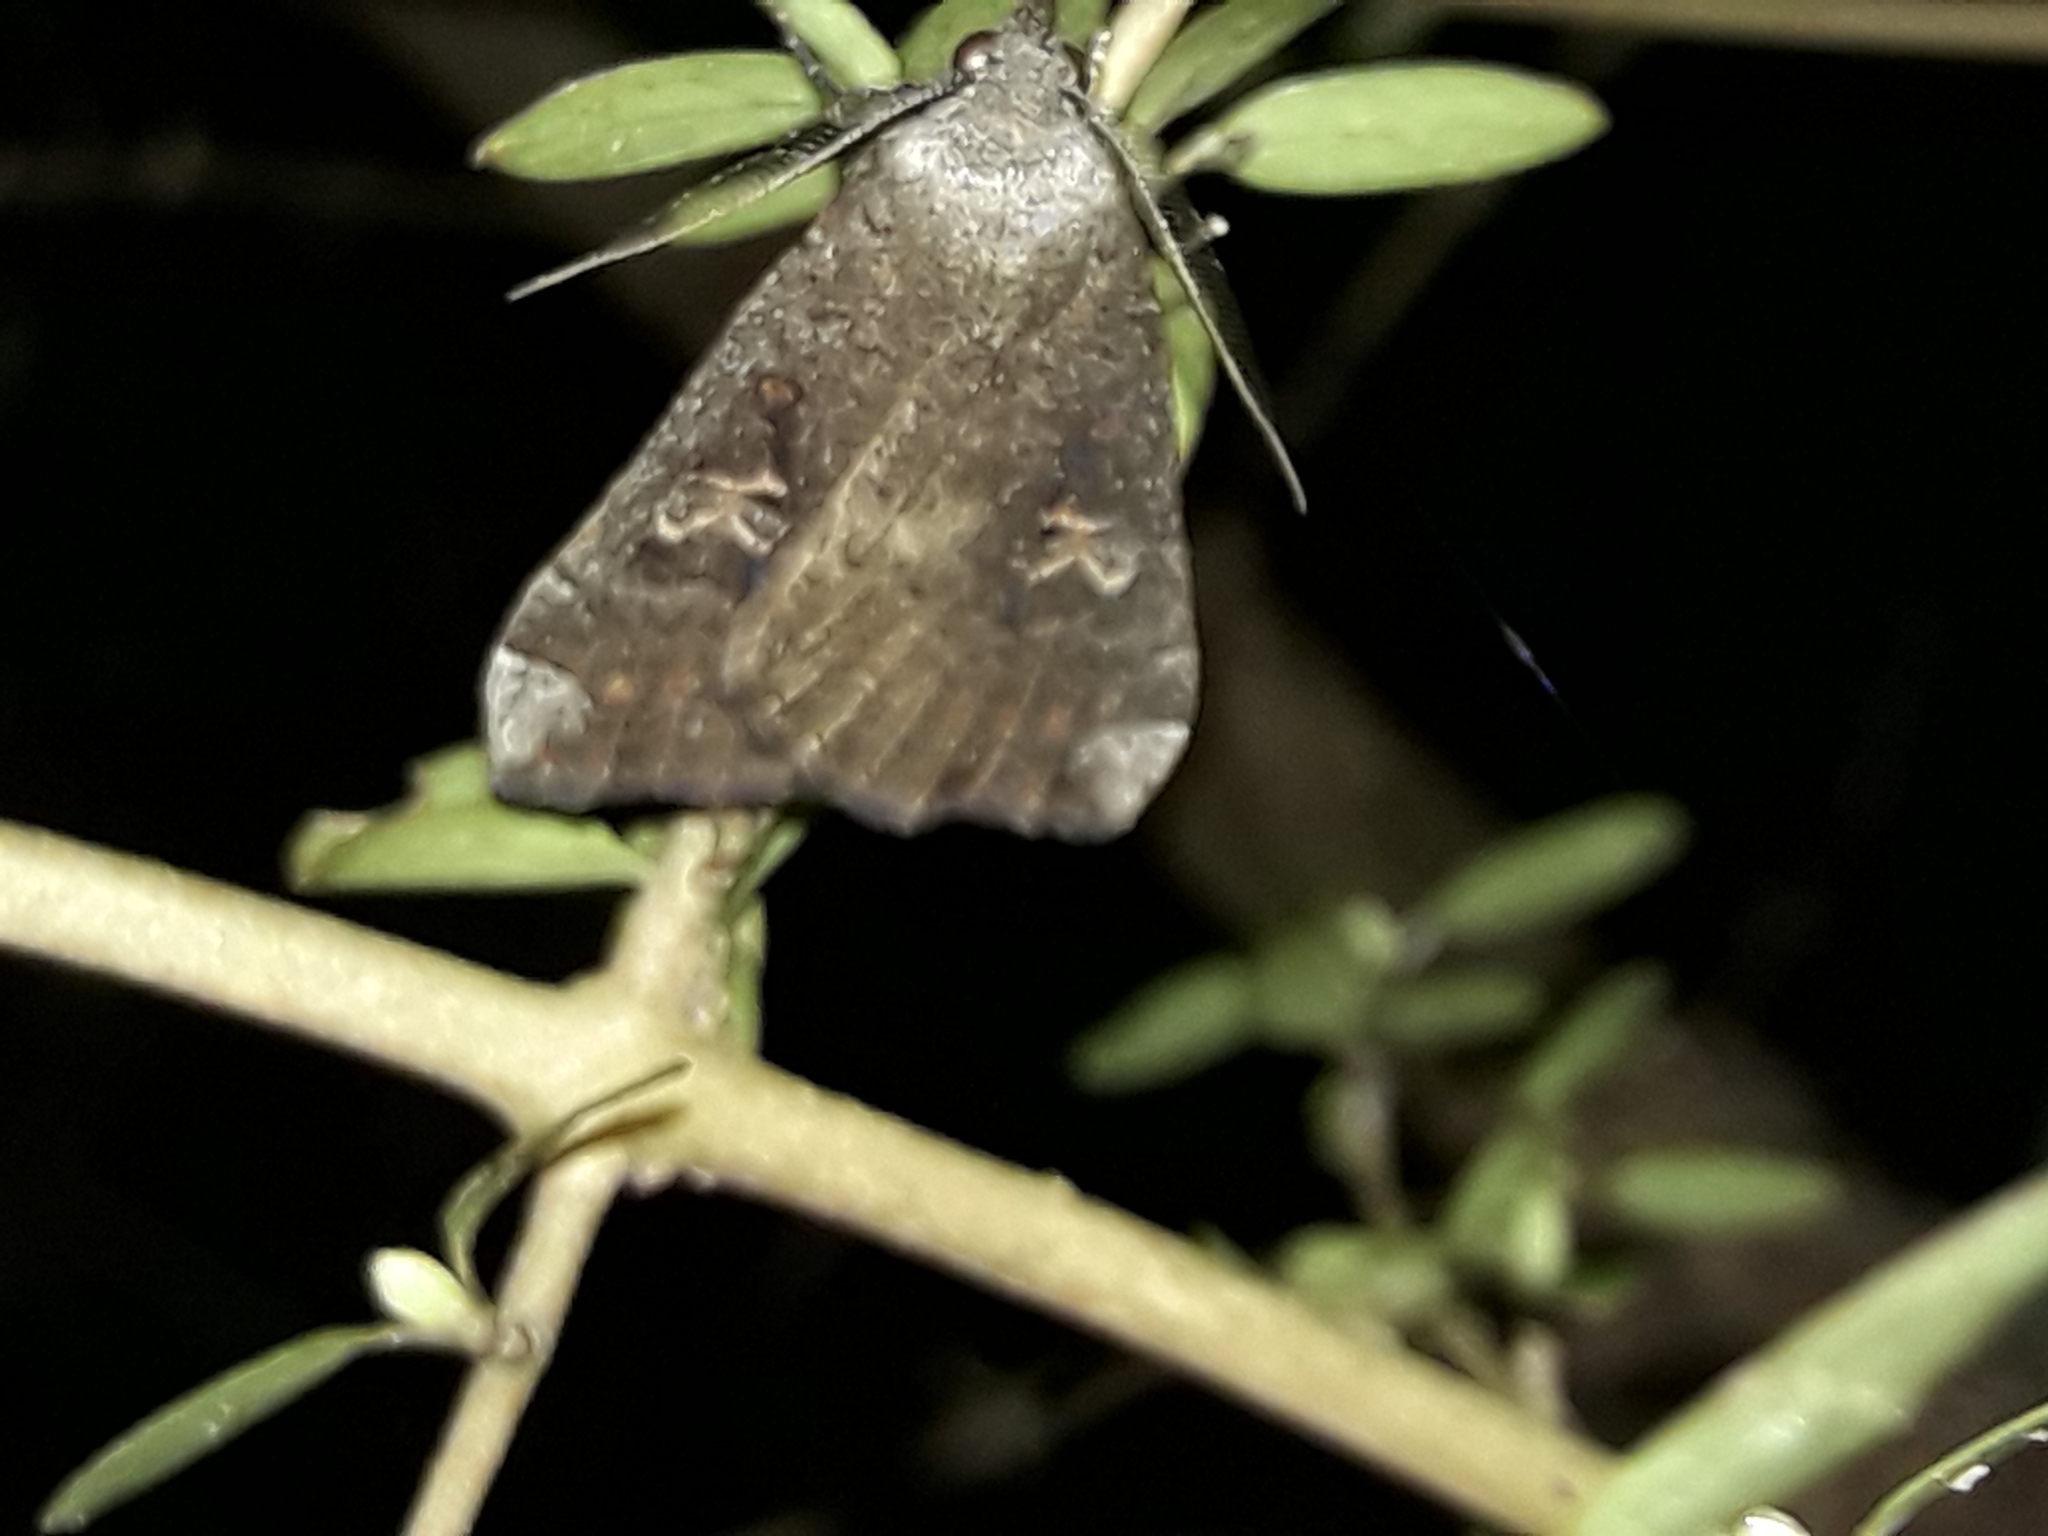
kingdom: Animalia
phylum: Arthropoda
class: Insecta
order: Lepidoptera
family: Erebidae
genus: Rhapsa
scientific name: Rhapsa scotosialis
